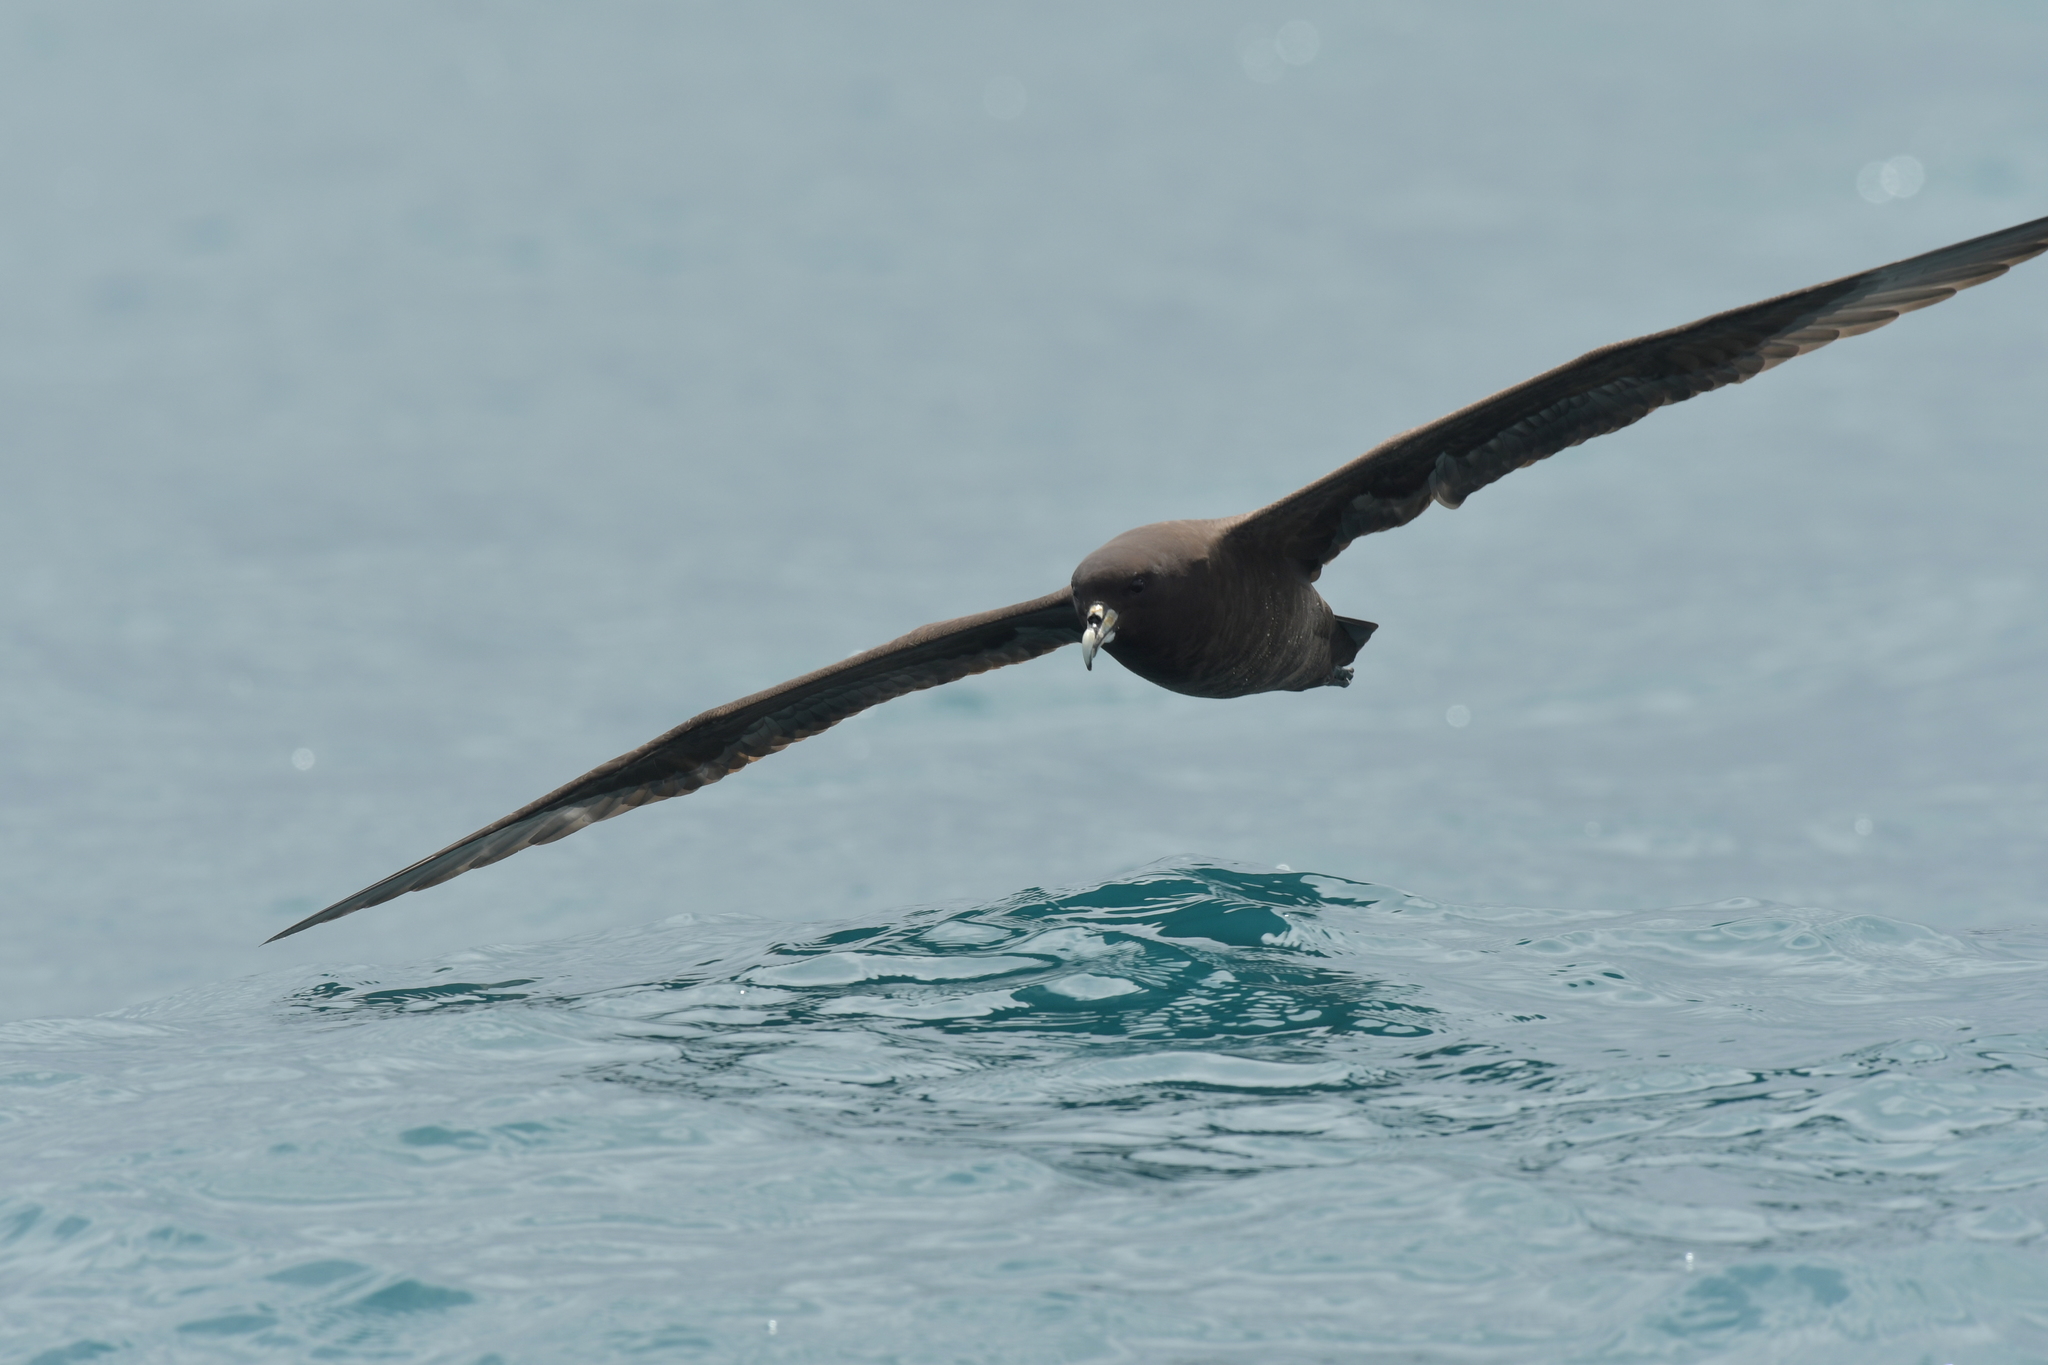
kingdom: Animalia
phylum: Chordata
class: Aves
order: Procellariiformes
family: Procellariidae
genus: Procellaria
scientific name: Procellaria aequinoctialis
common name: White-chinned petrel
